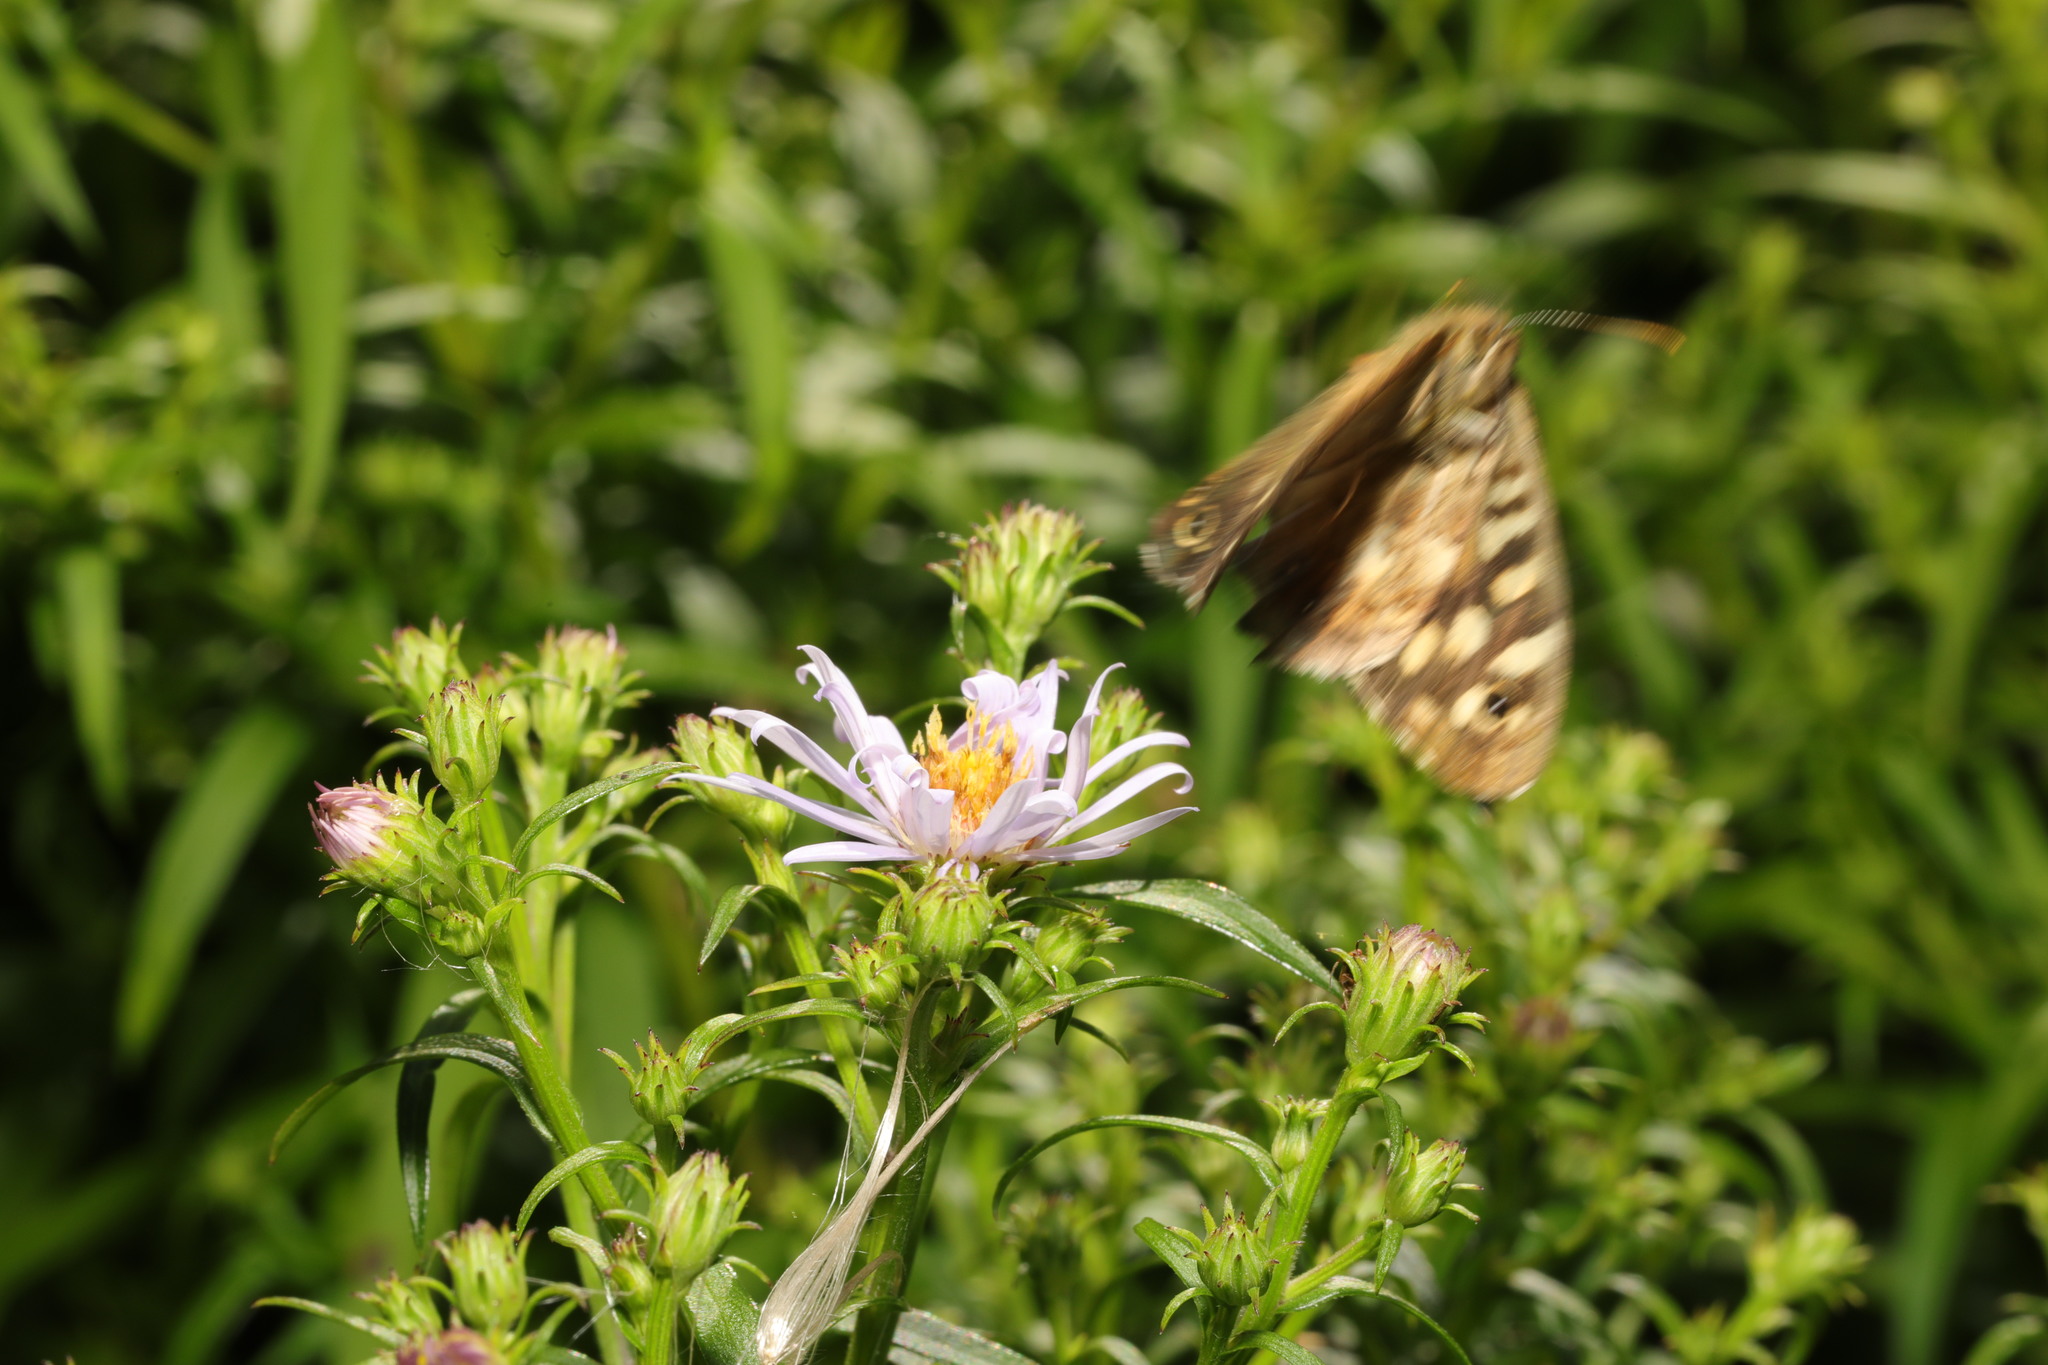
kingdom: Animalia
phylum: Arthropoda
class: Insecta
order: Lepidoptera
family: Nymphalidae
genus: Pararge
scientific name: Pararge aegeria
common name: Speckled wood
